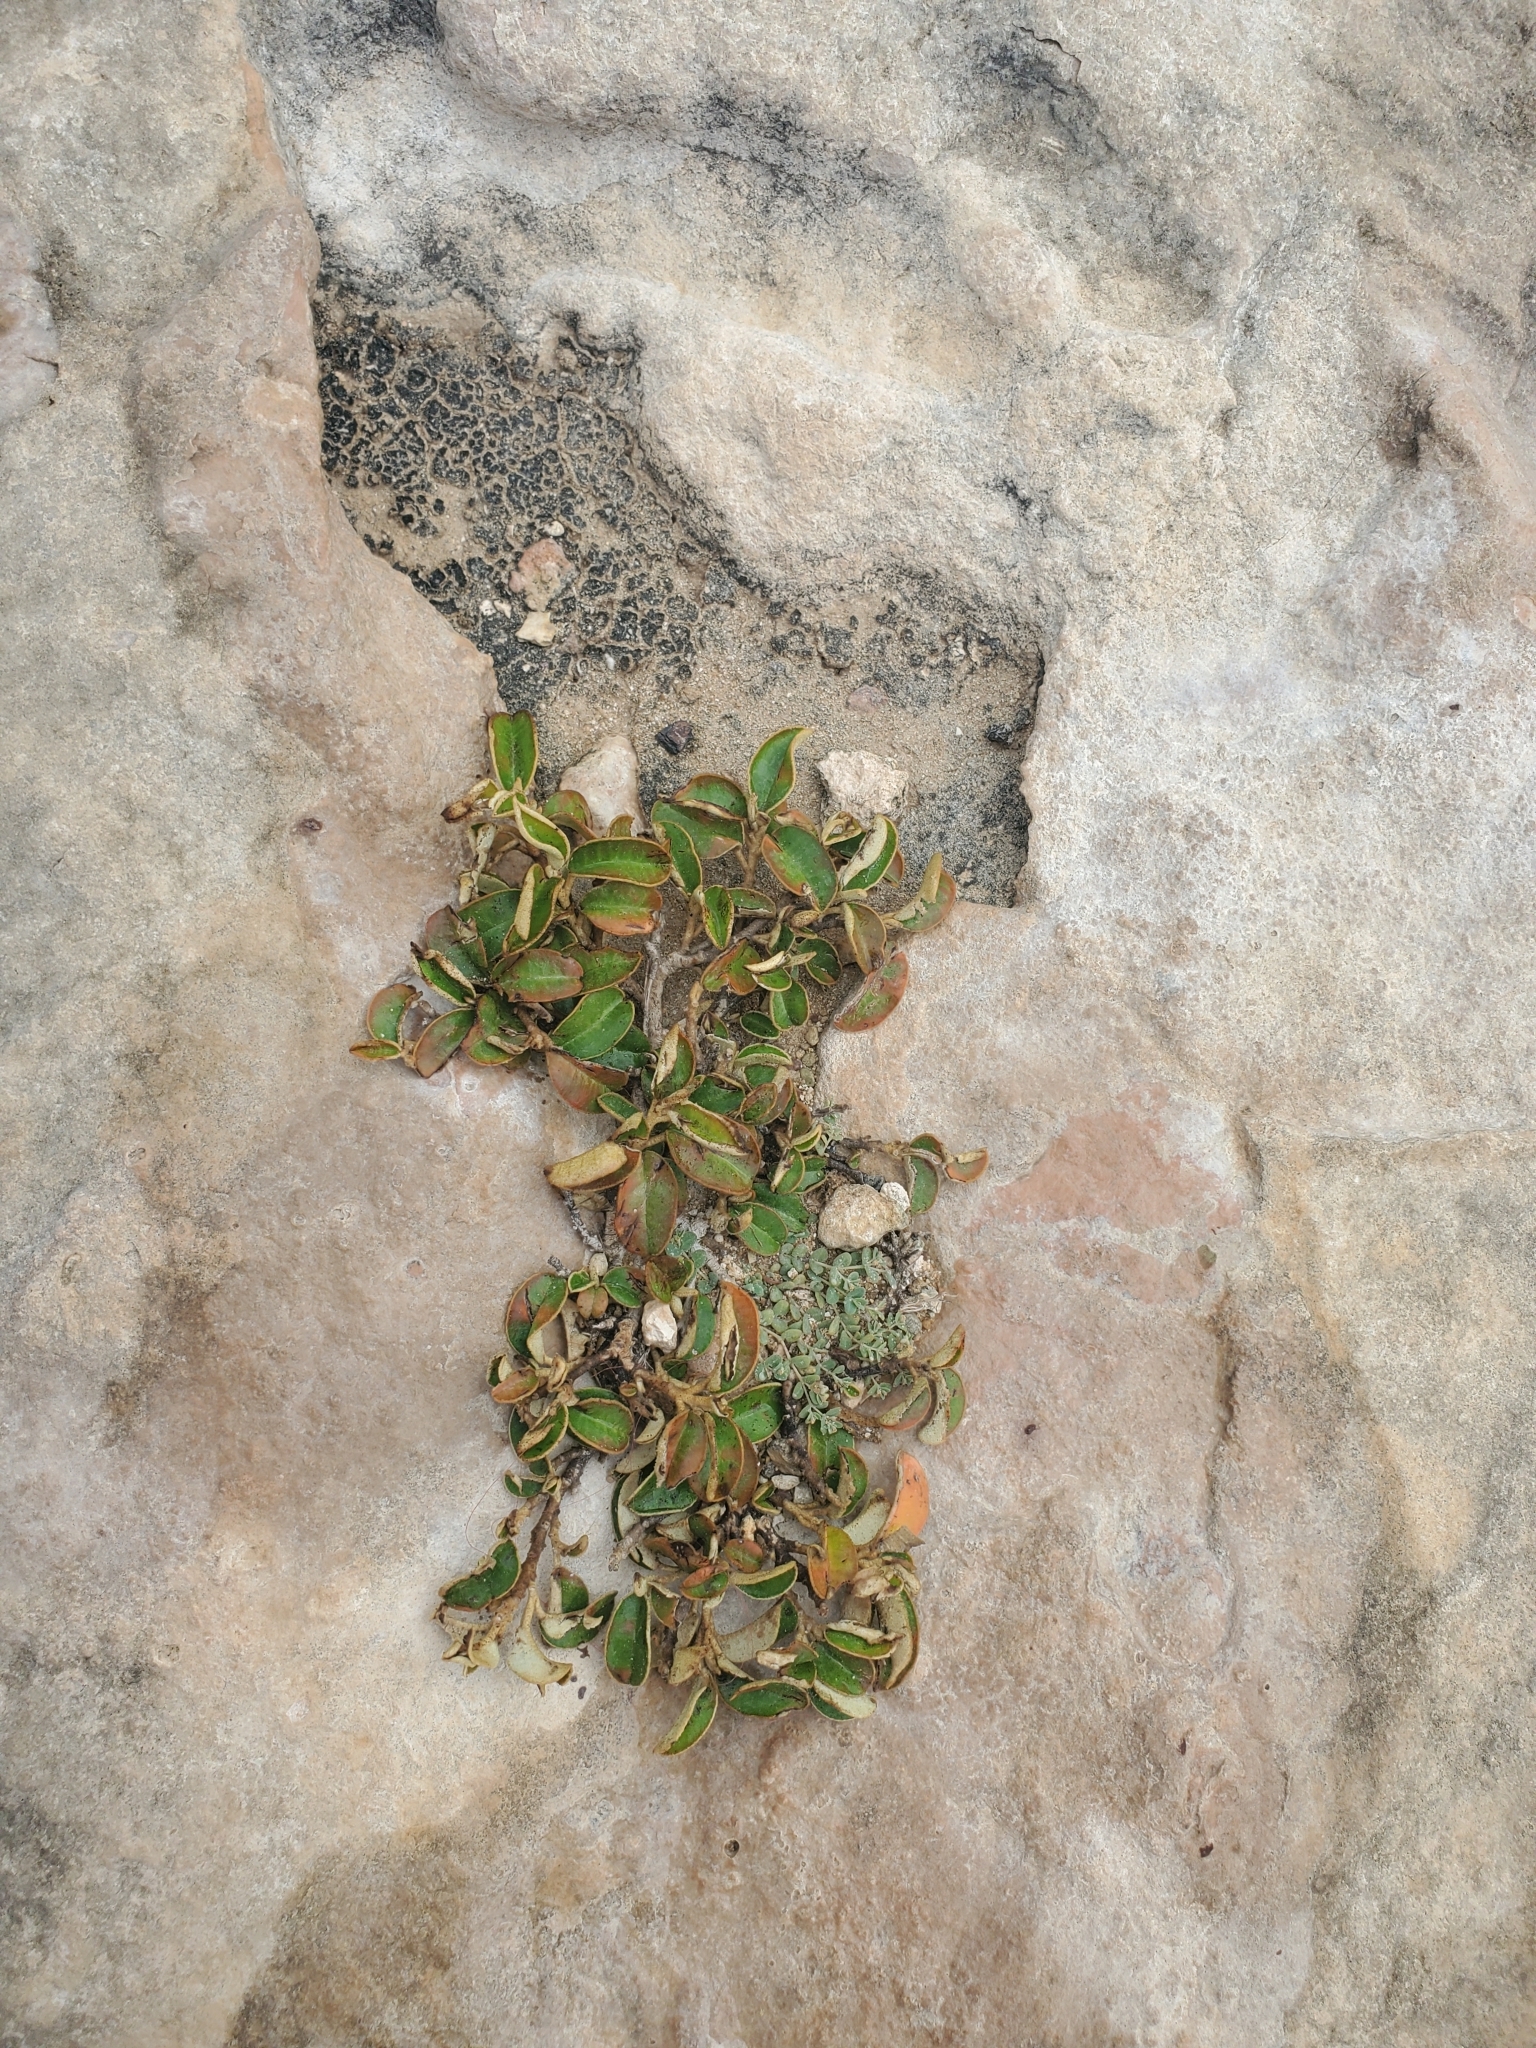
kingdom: Plantae
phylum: Tracheophyta
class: Magnoliopsida
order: Malpighiales
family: Euphorbiaceae
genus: Croton
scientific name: Croton discolor
